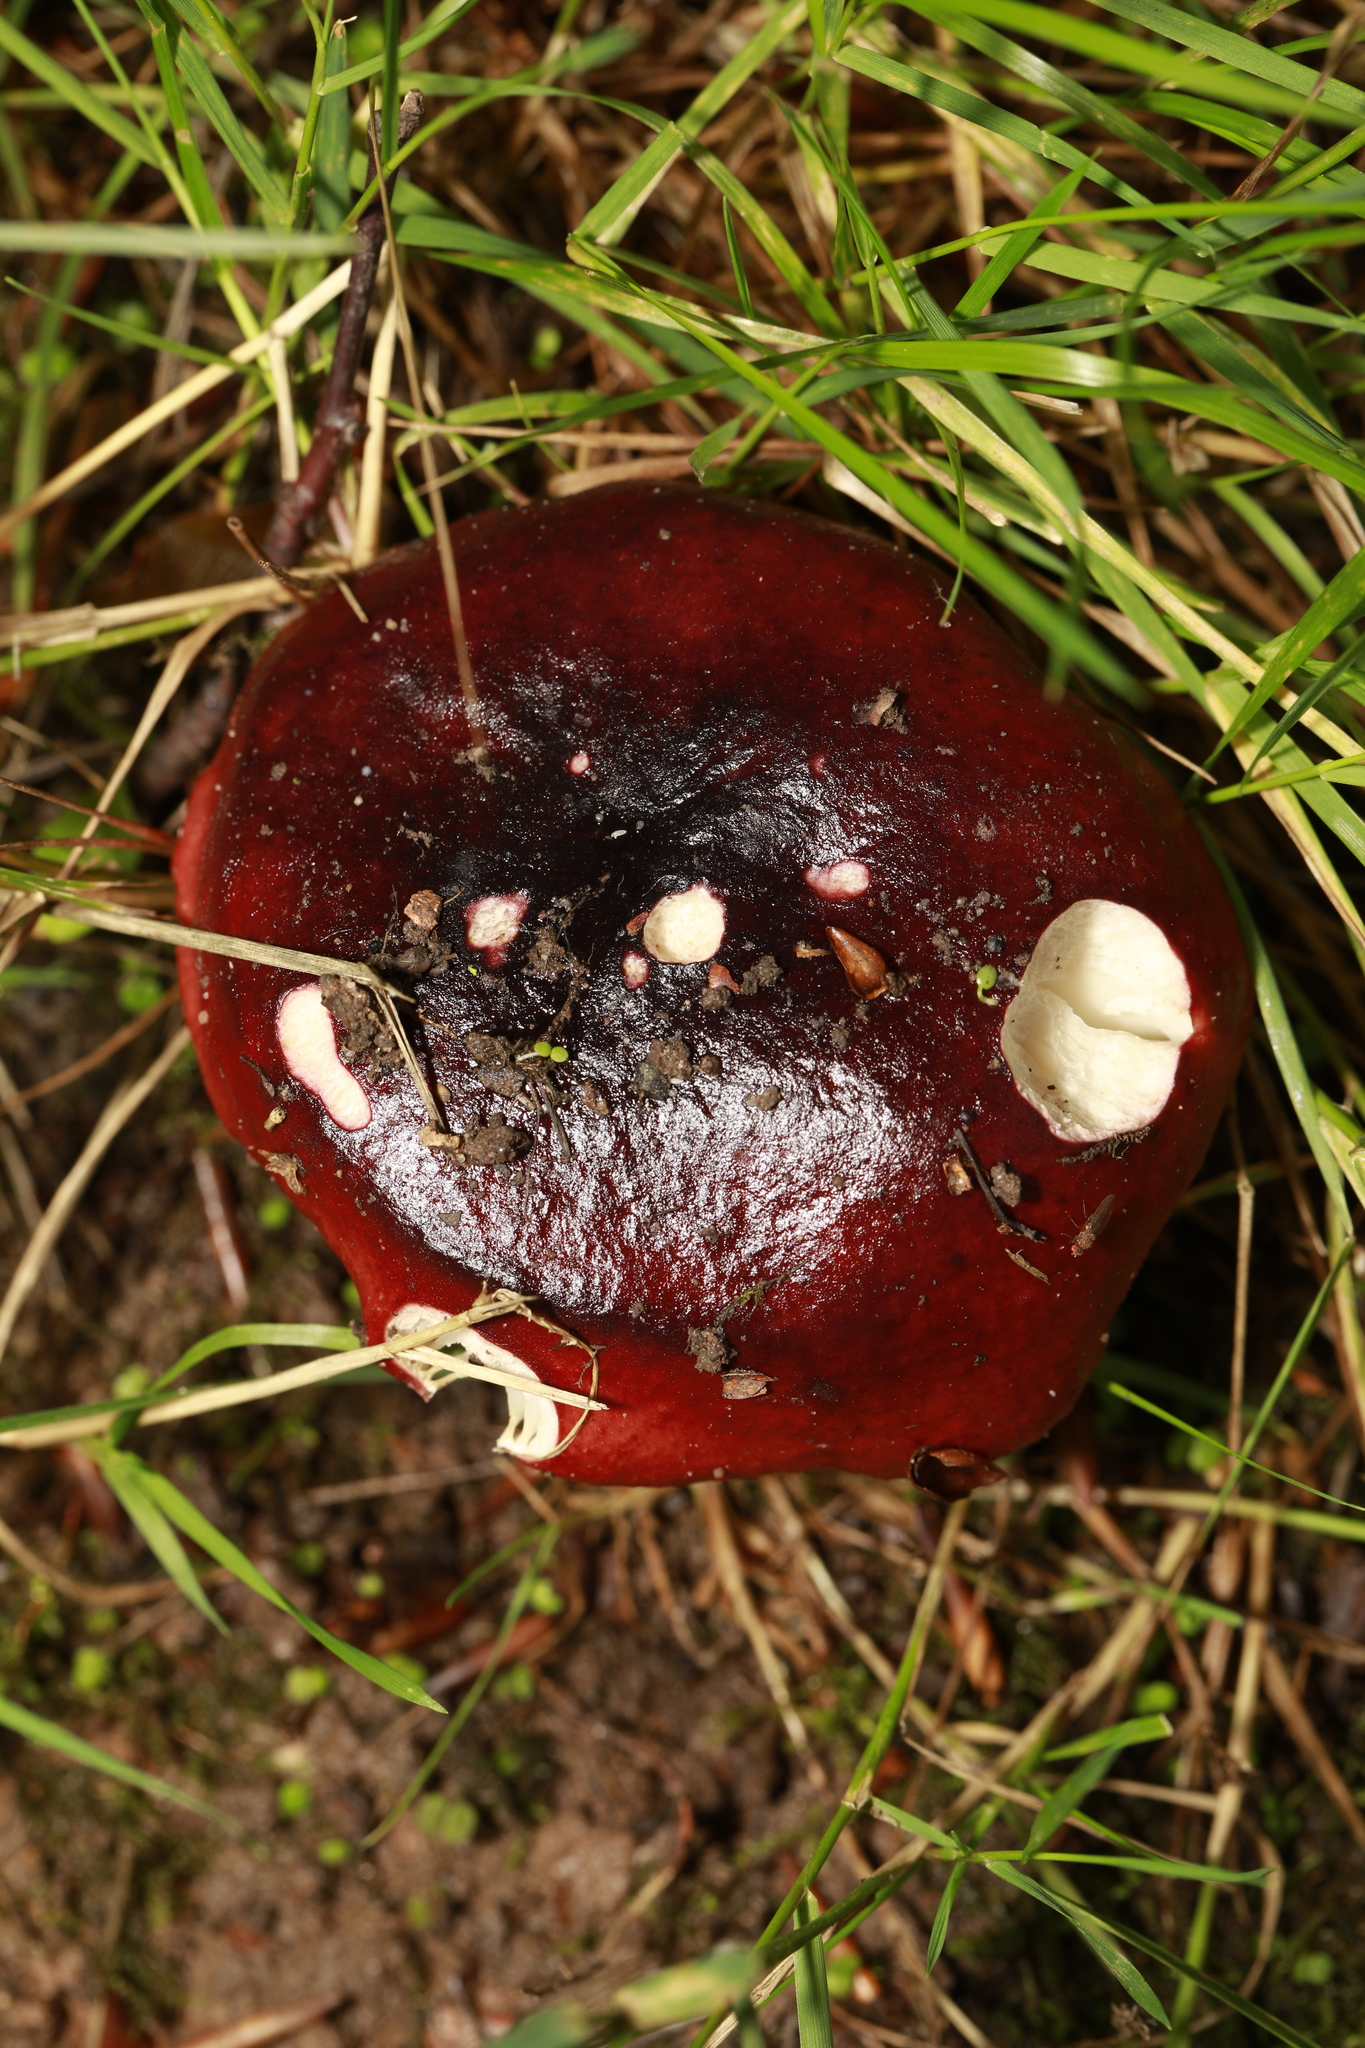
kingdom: Fungi
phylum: Basidiomycota
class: Agaricomycetes
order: Russulales
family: Russulaceae
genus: Russula
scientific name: Russula
